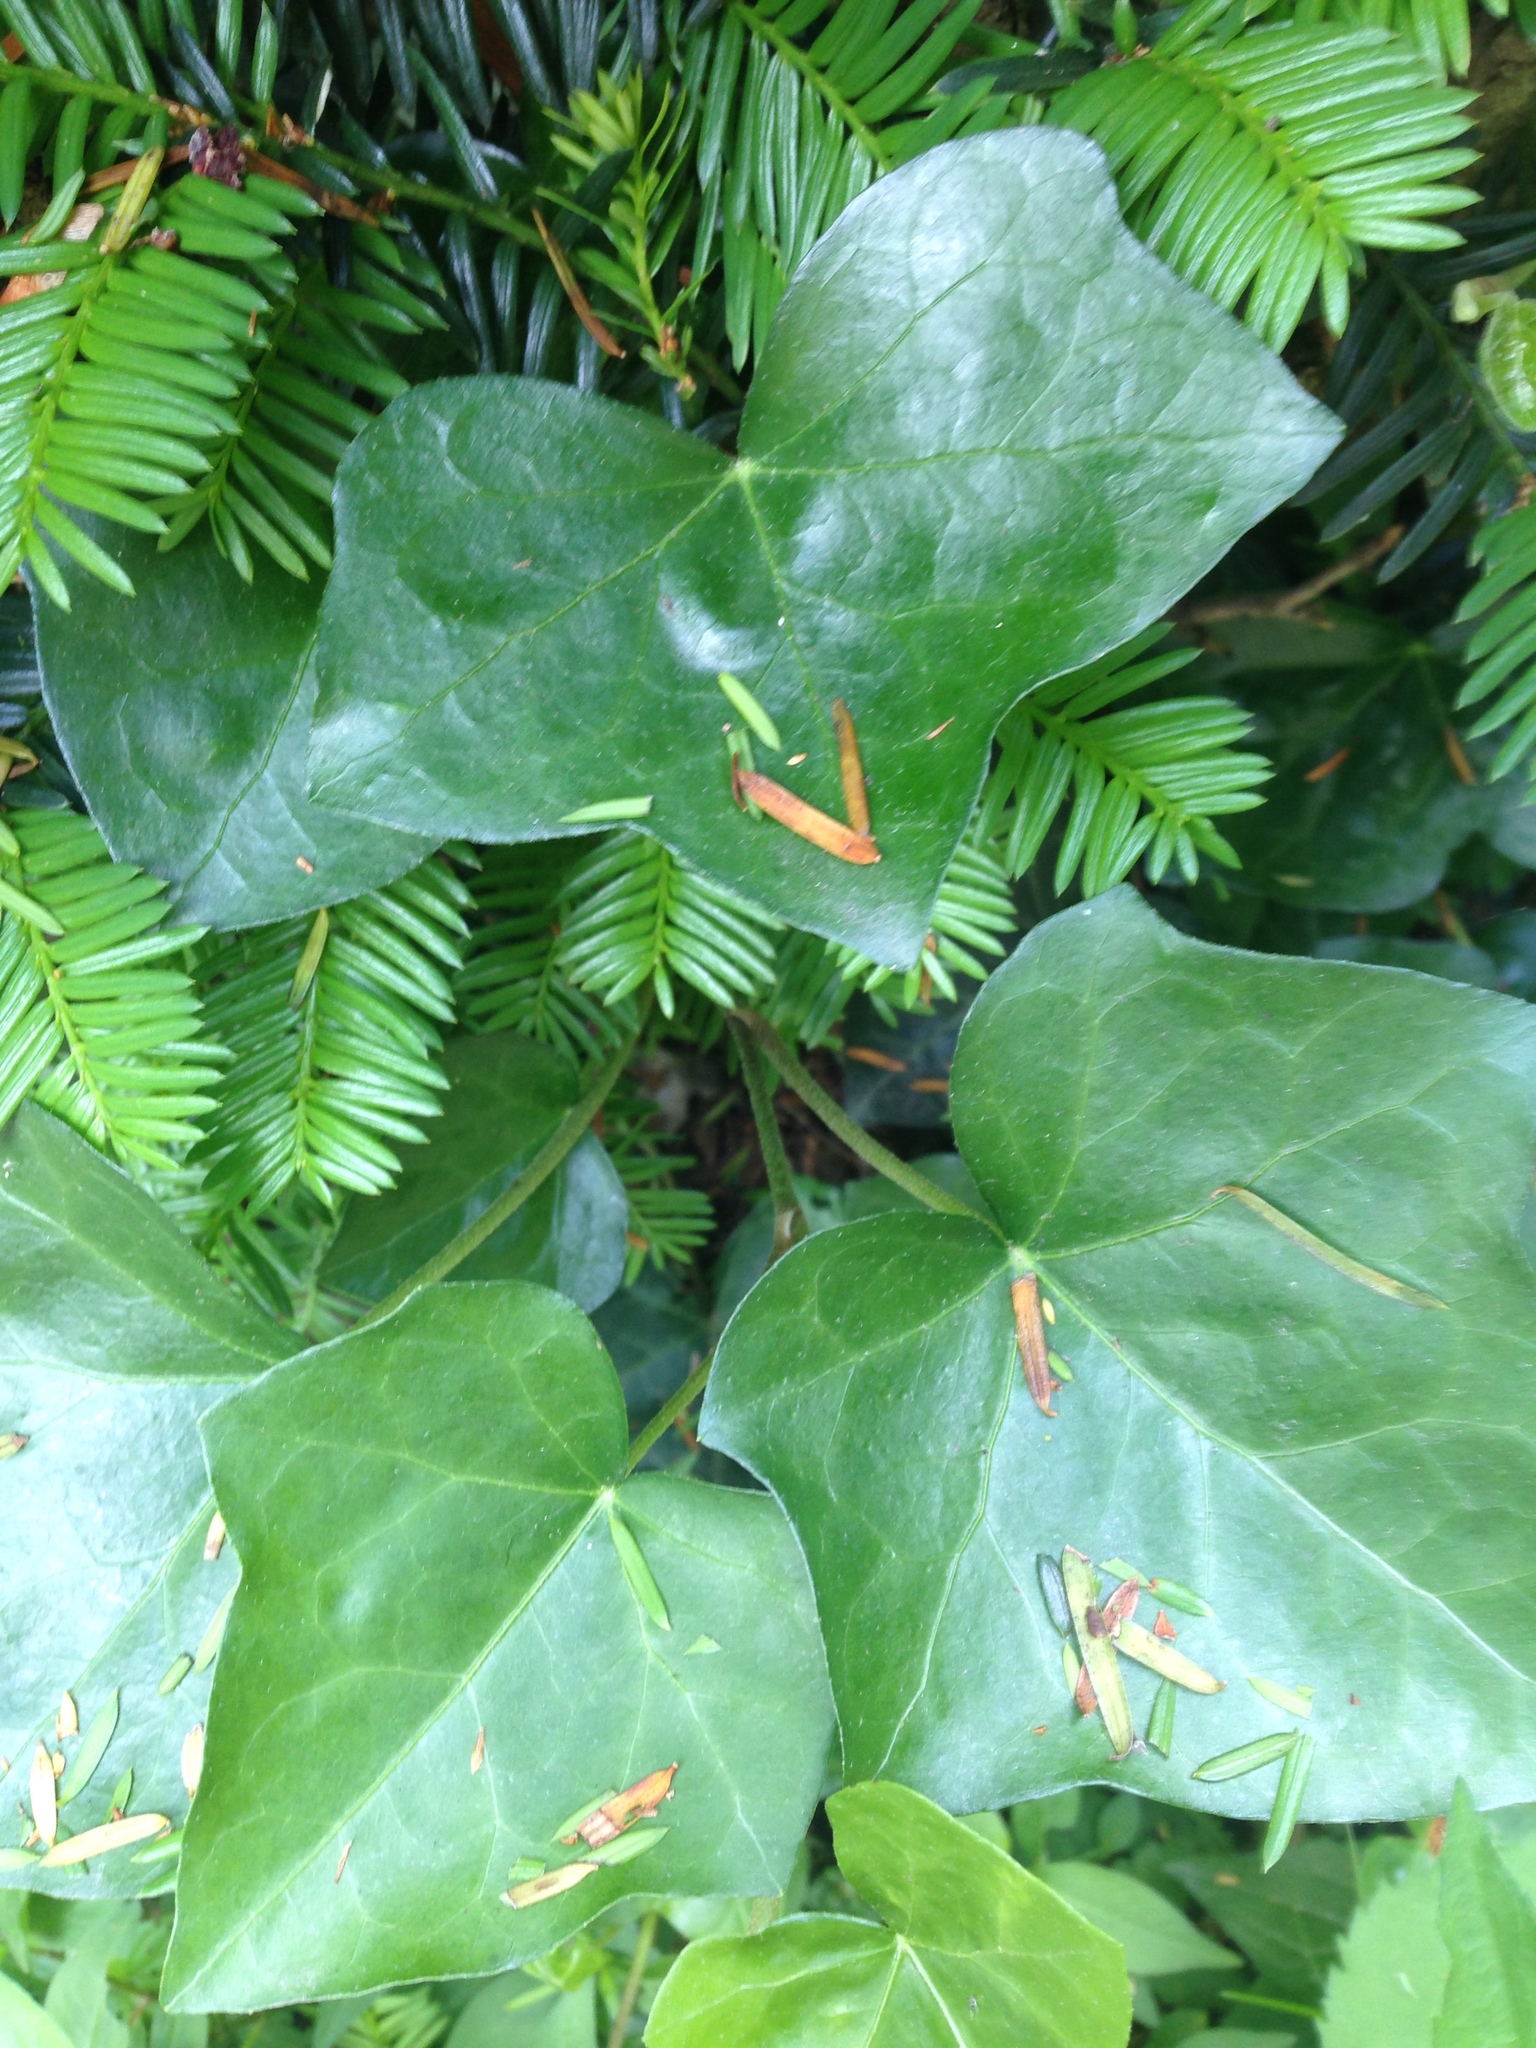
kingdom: Plantae
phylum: Tracheophyta
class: Magnoliopsida
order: Apiales
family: Araliaceae
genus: Hedera
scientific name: Hedera helix
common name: Ivy
